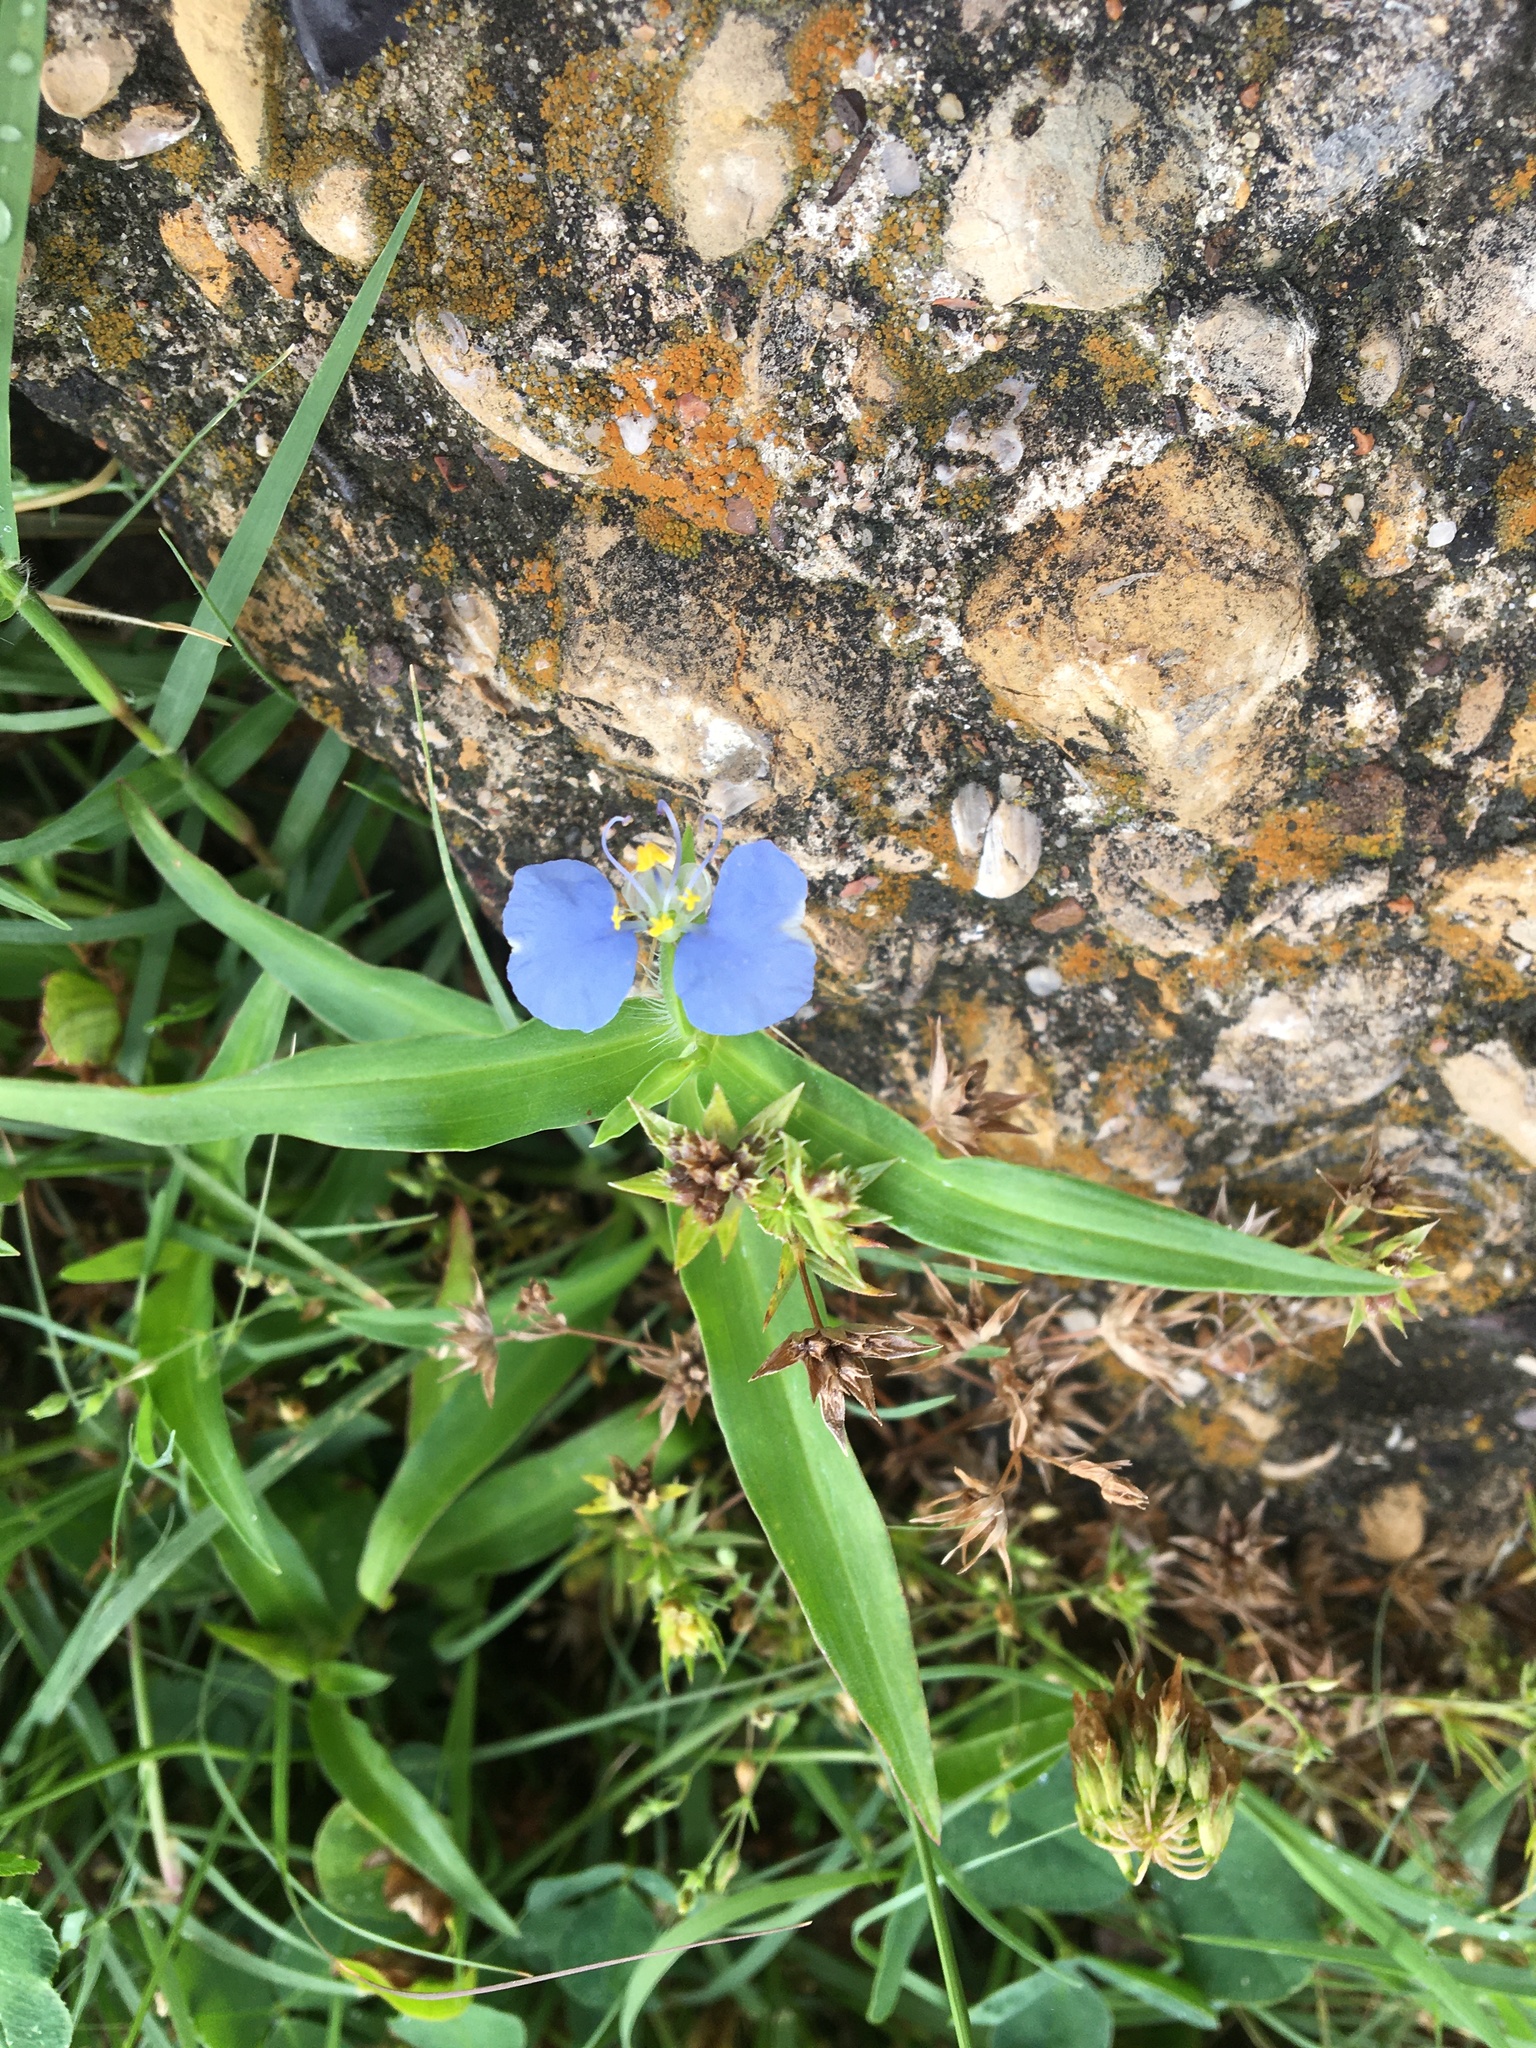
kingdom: Plantae
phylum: Tracheophyta
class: Liliopsida
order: Commelinales
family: Commelinaceae
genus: Commelina
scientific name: Commelina erecta
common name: Blousel blommetjie
